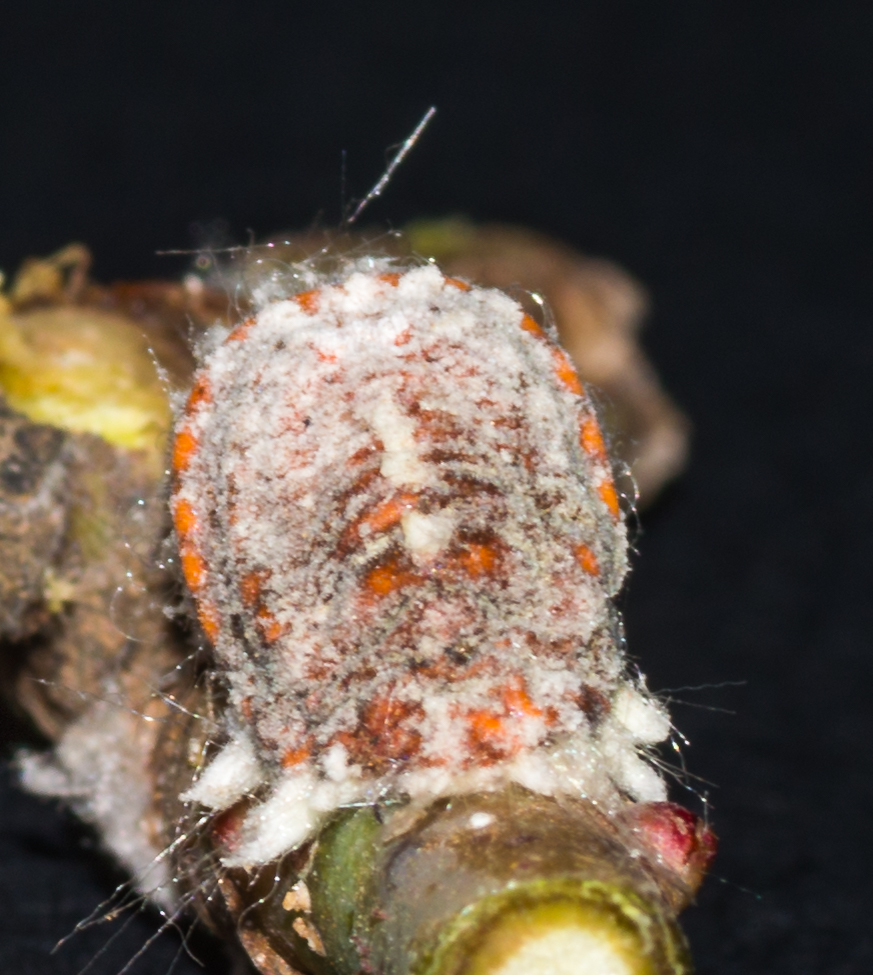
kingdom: Animalia
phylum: Arthropoda
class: Insecta
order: Hemiptera
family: Margarodidae
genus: Icerya
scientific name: Icerya purchasi
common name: Cottony cushion scale
